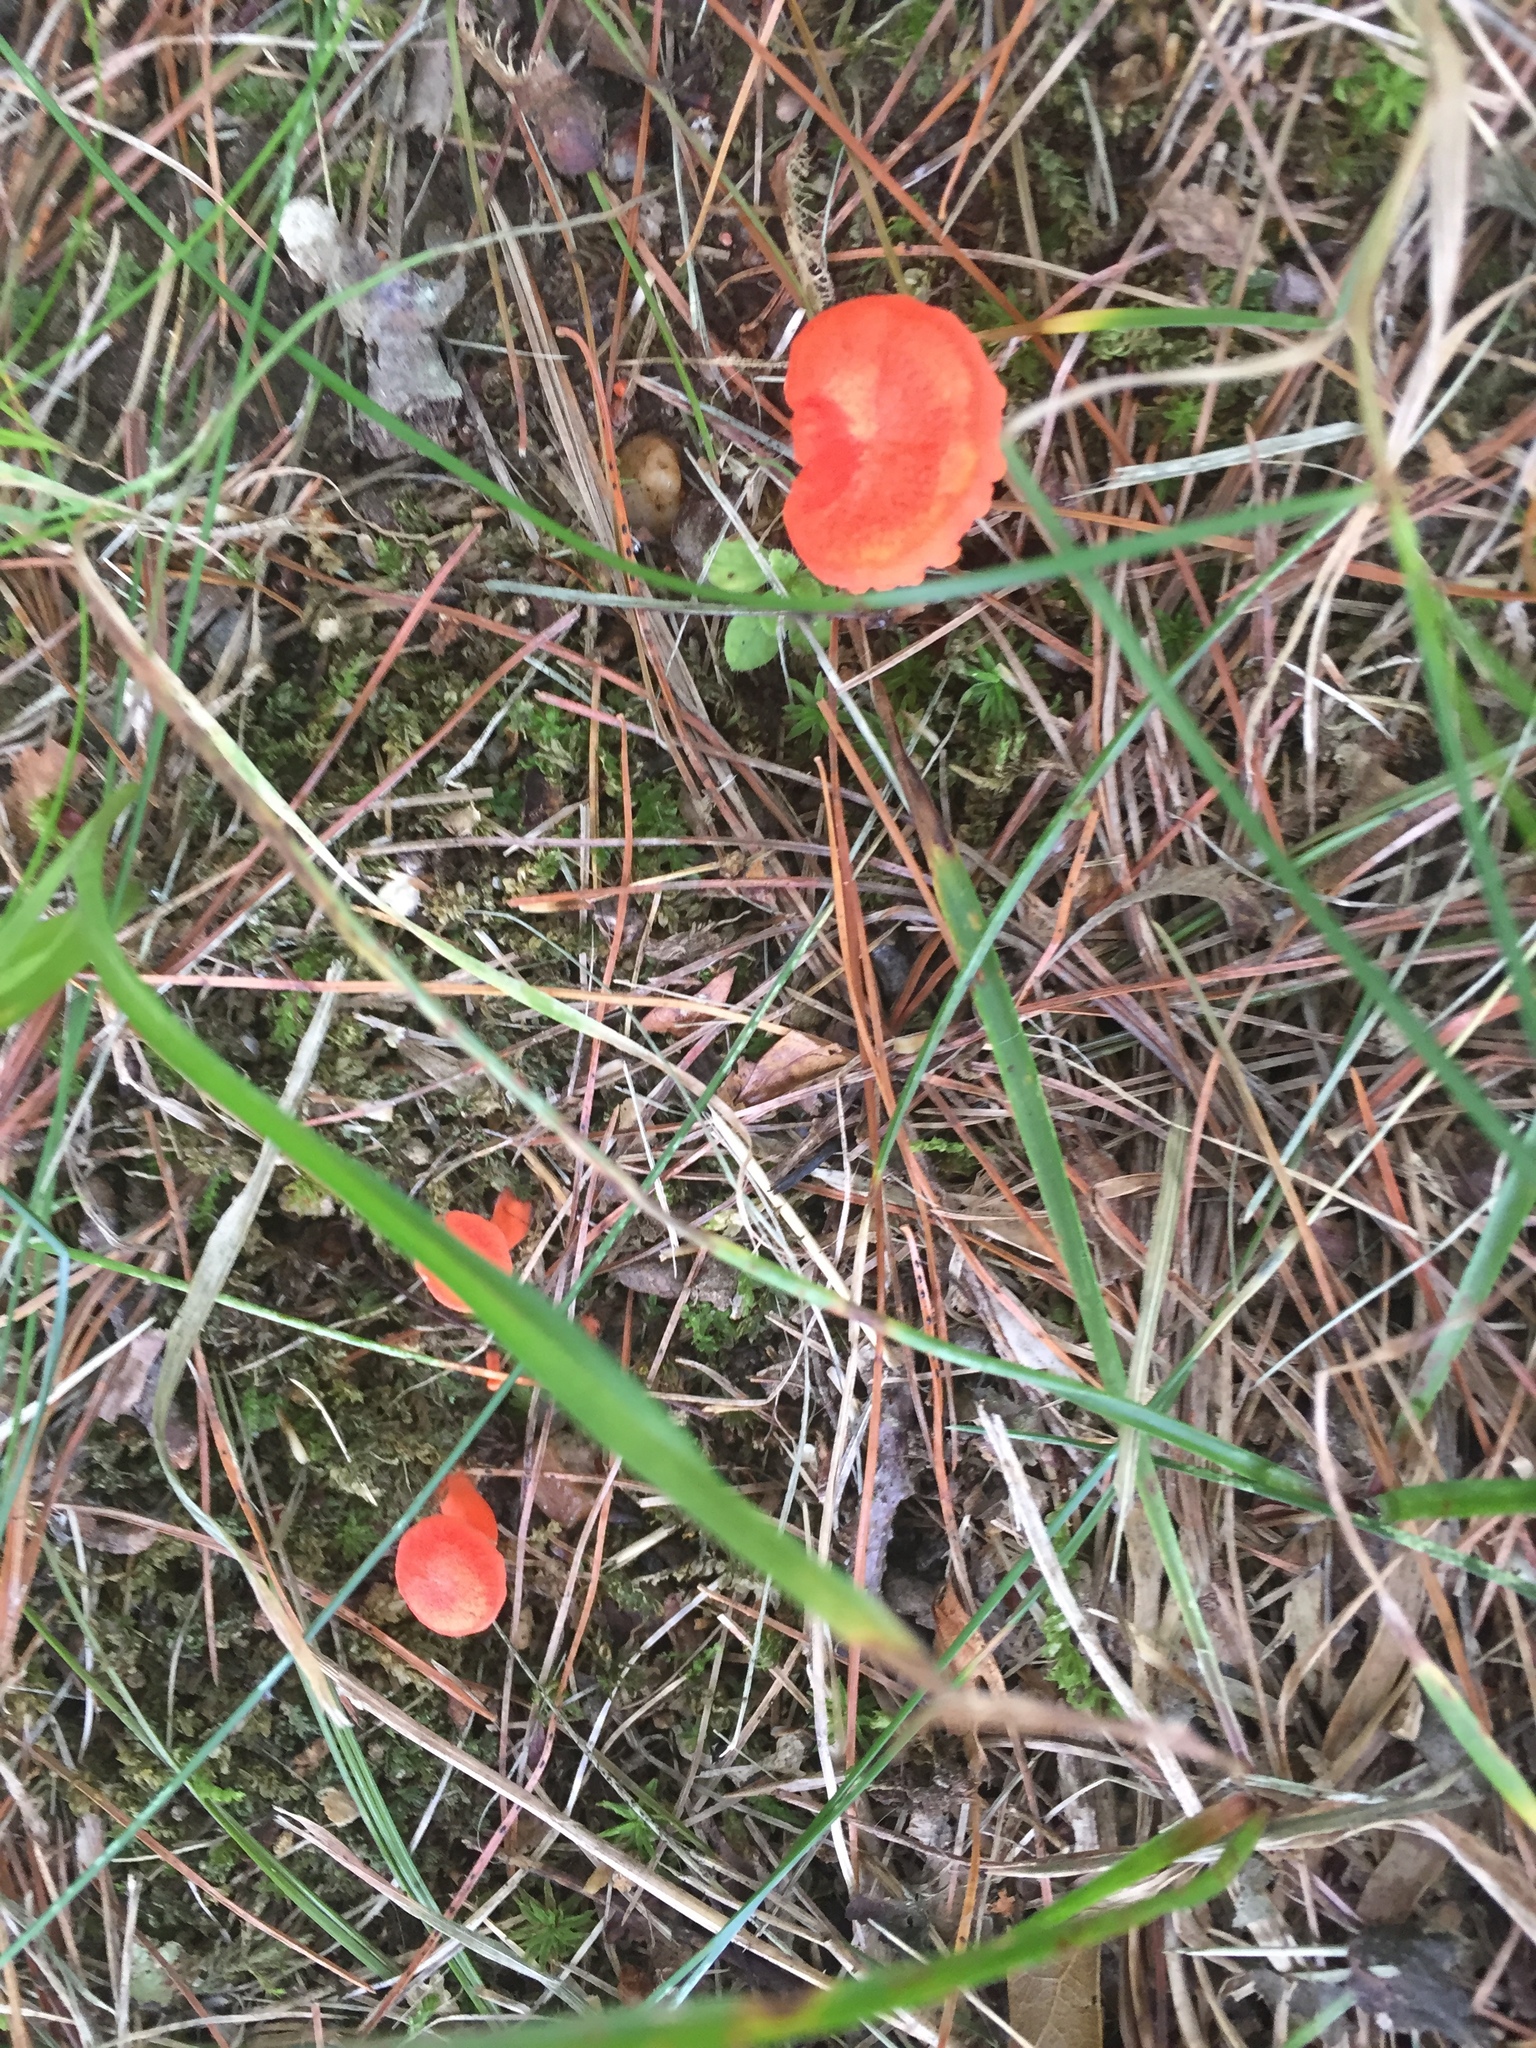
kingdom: Fungi
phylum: Basidiomycota
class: Agaricomycetes
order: Cantharellales
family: Hydnaceae
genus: Cantharellus
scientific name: Cantharellus cinnabarinus
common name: Cinnabar chanterelle
